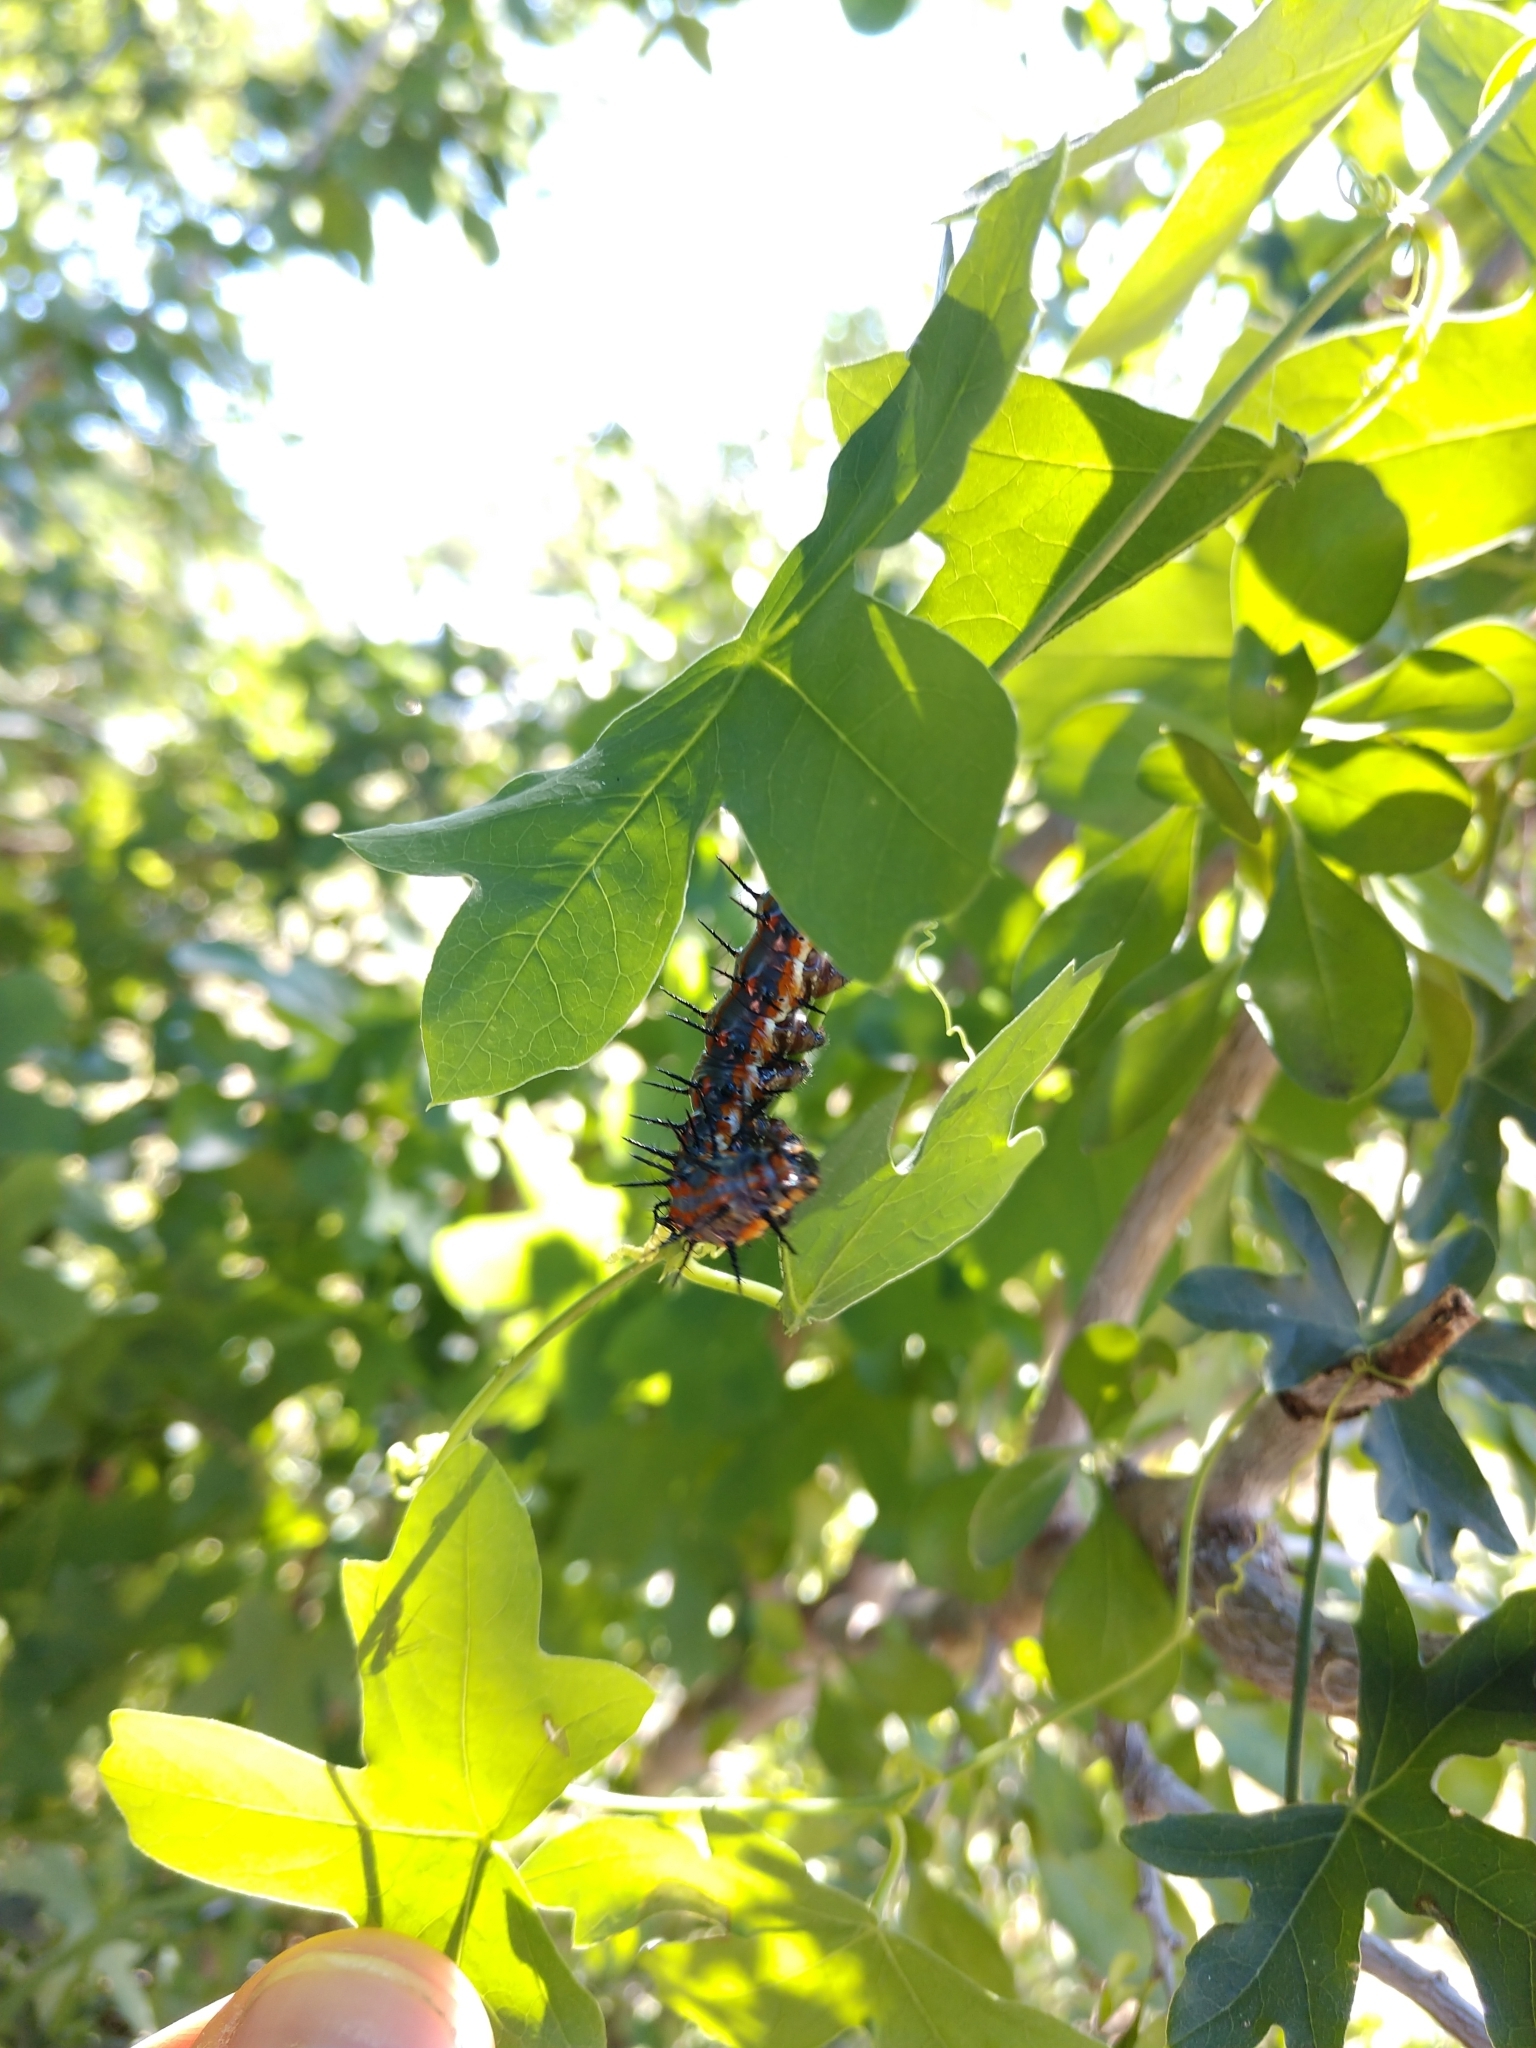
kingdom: Animalia
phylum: Arthropoda
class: Insecta
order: Lepidoptera
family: Nymphalidae
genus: Dione
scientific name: Dione vanillae
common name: Gulf fritillary
